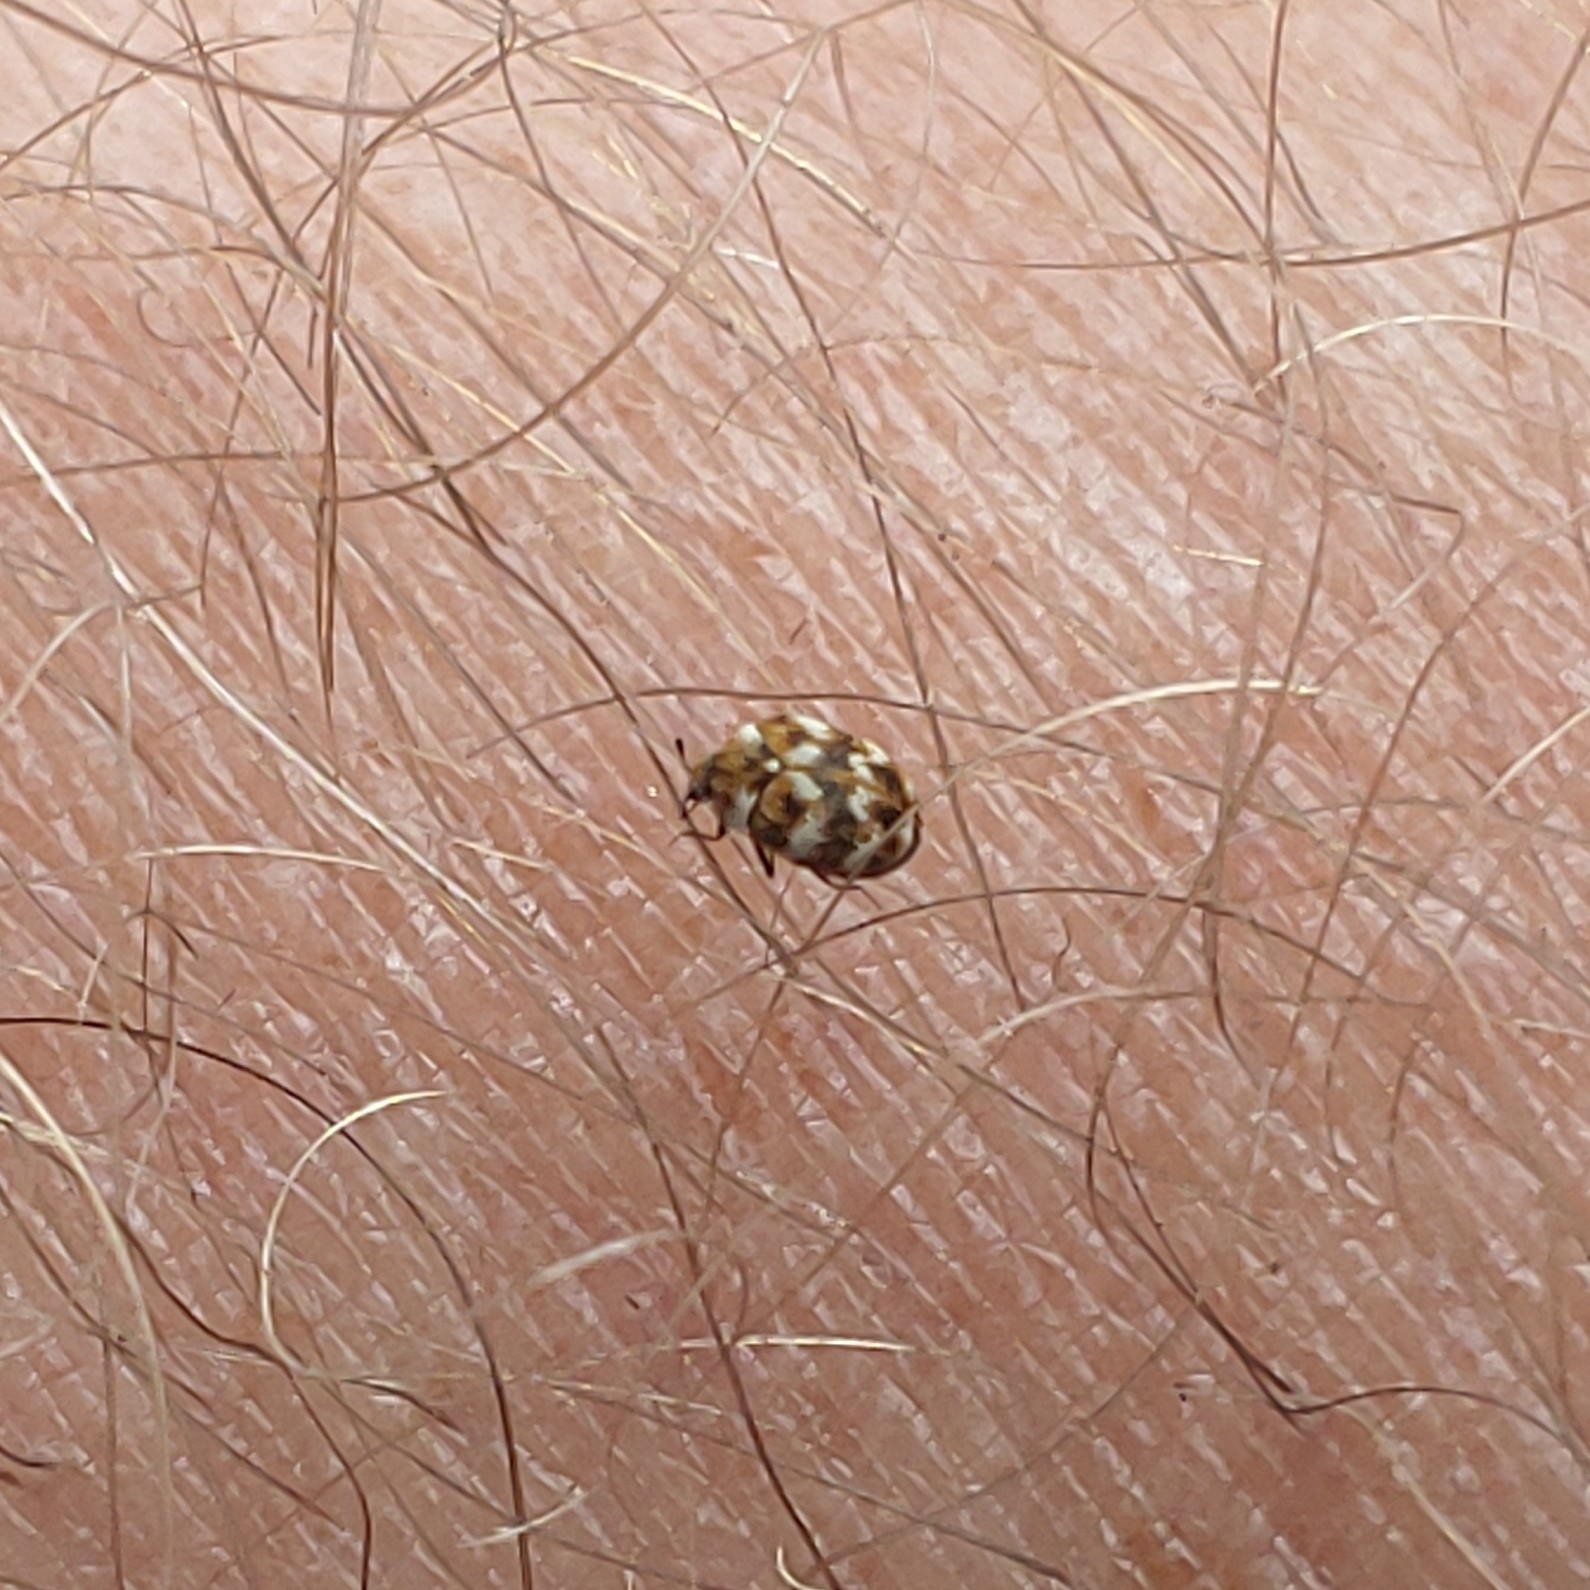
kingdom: Animalia
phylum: Arthropoda
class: Insecta
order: Coleoptera
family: Dermestidae
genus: Anthrenus
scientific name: Anthrenus verbasci
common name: Varied carpet beetle
